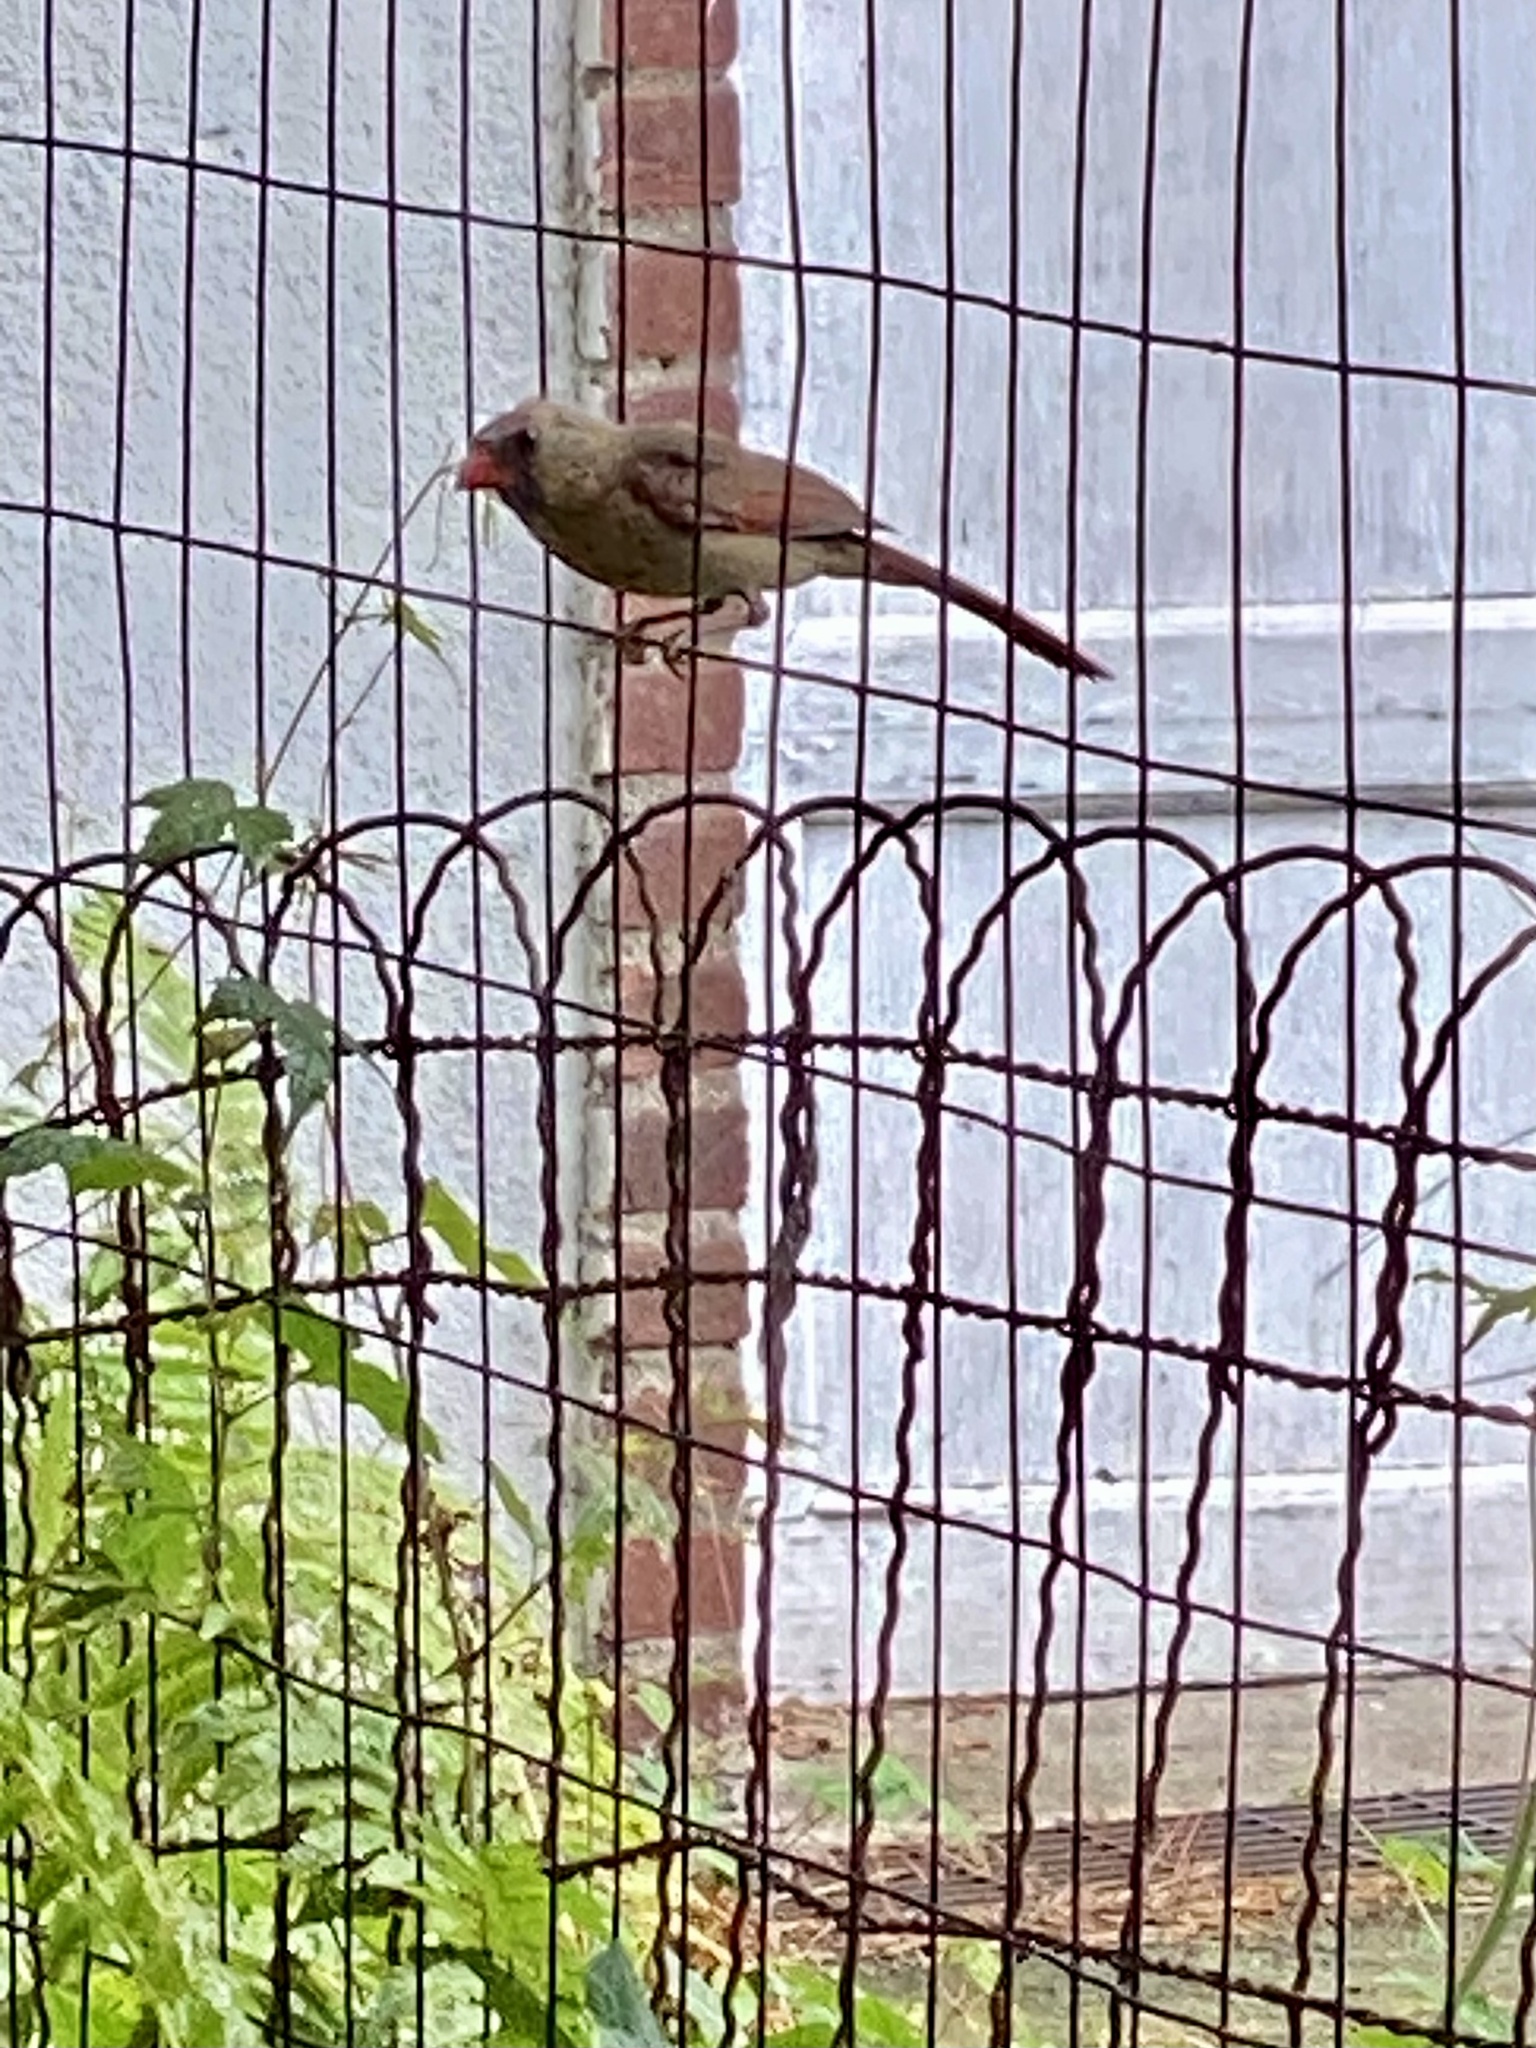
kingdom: Animalia
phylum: Chordata
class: Aves
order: Passeriformes
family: Cardinalidae
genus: Cardinalis
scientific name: Cardinalis cardinalis
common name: Northern cardinal
